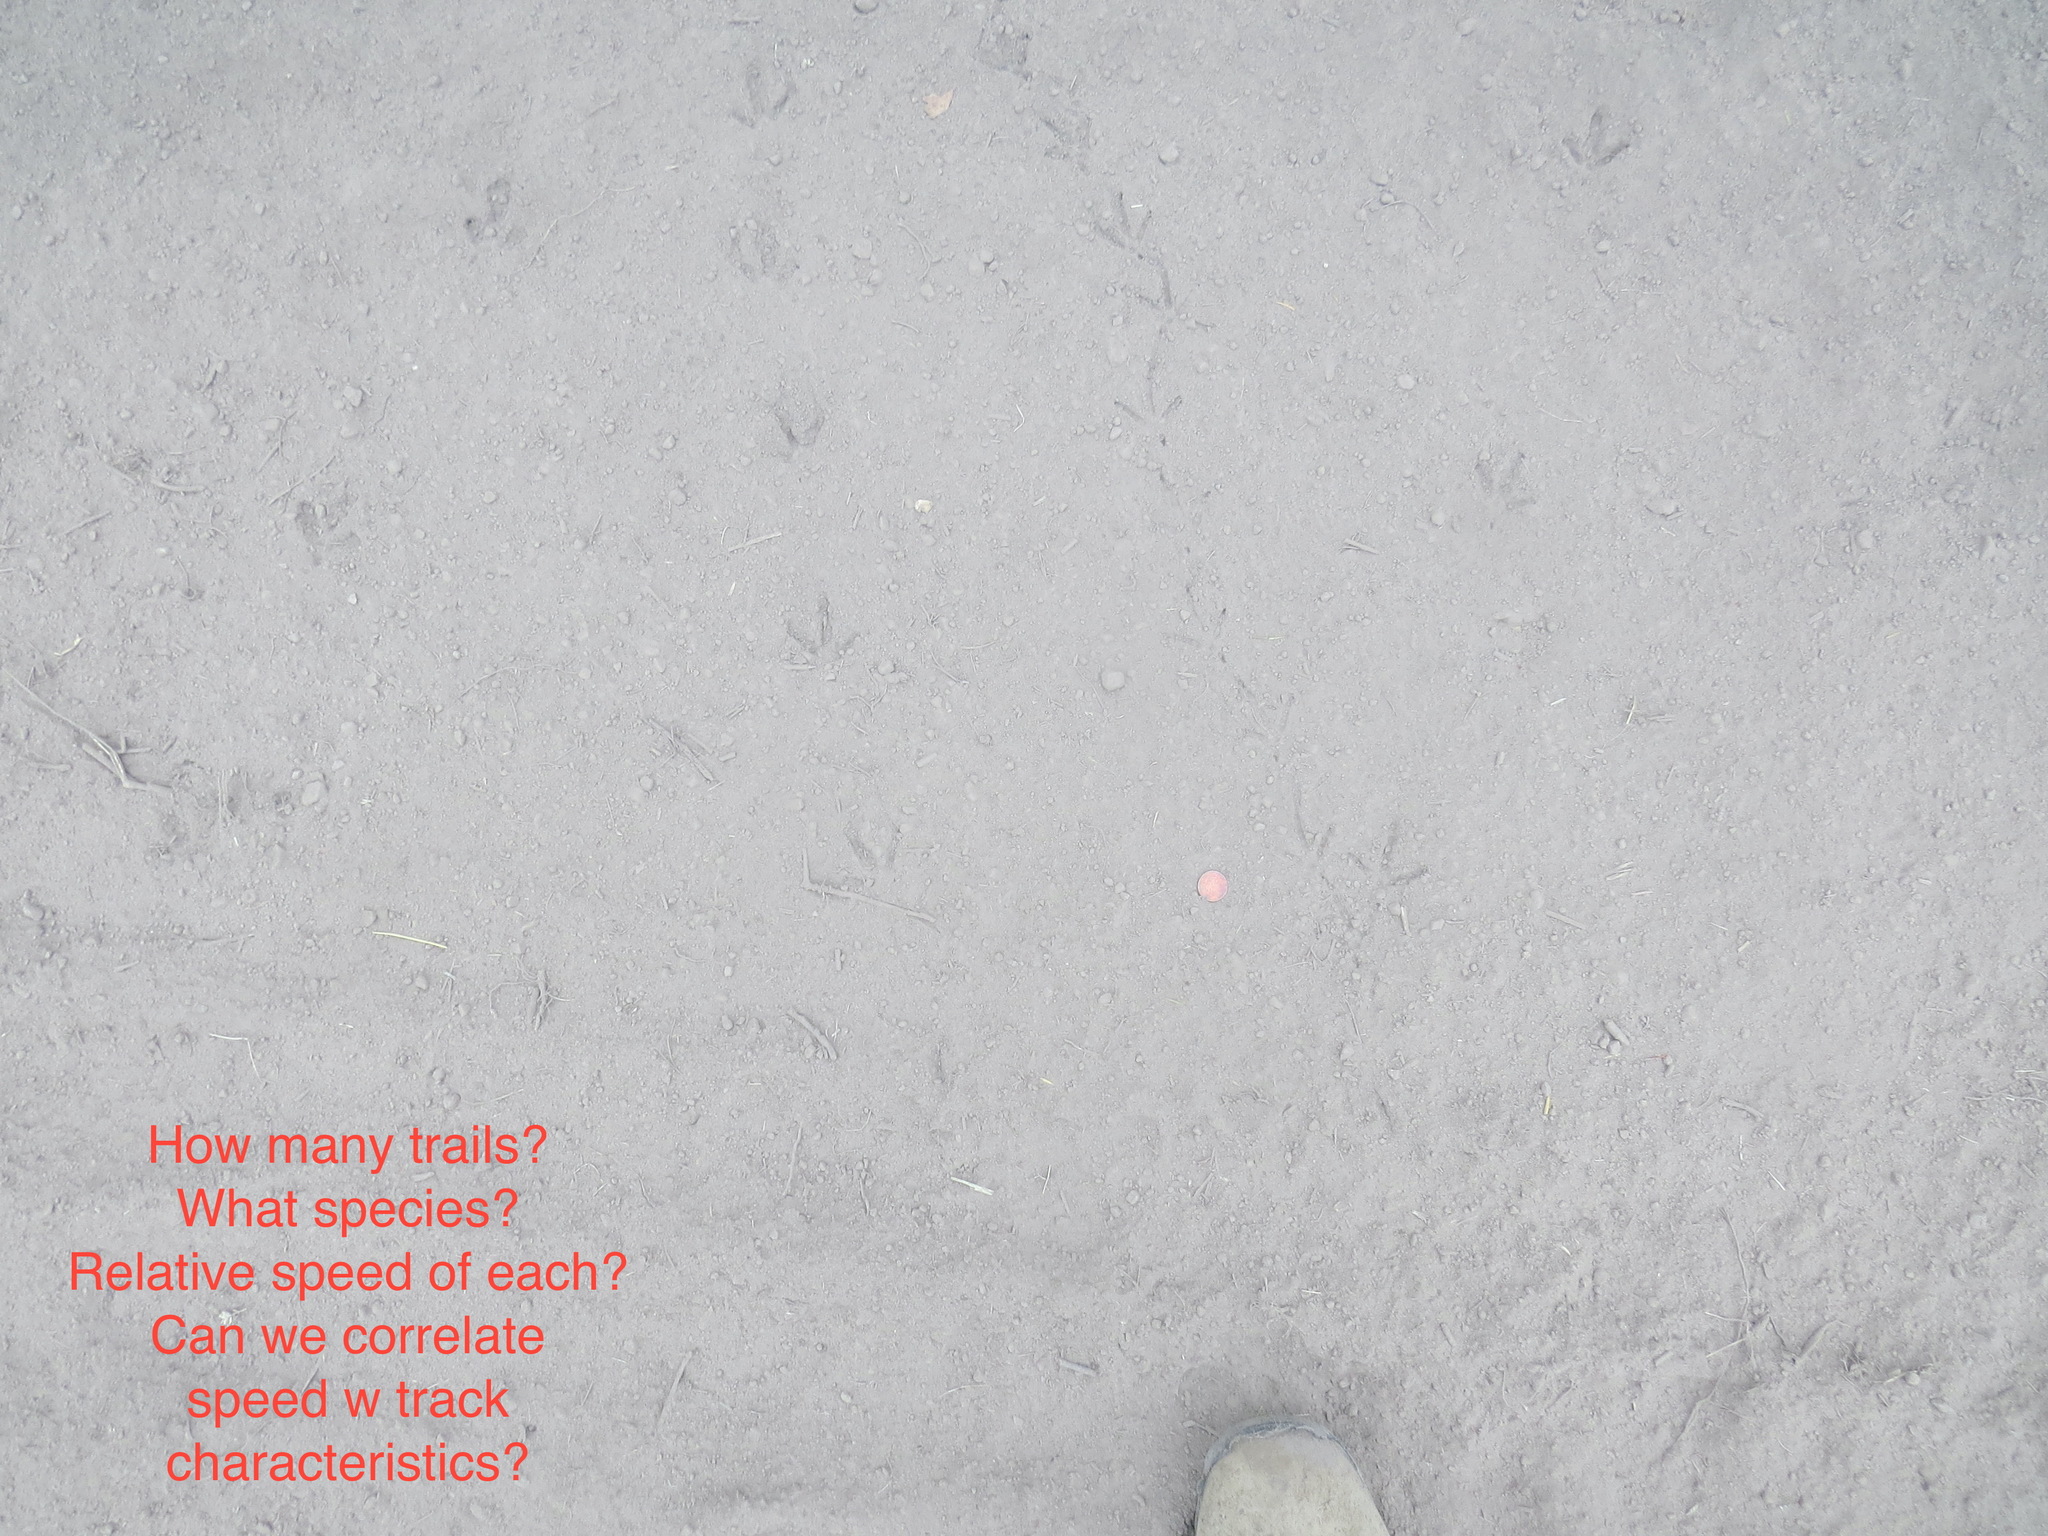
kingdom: Animalia
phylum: Chordata
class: Aves
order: Galliformes
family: Odontophoridae
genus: Callipepla
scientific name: Callipepla californica
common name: California quail
